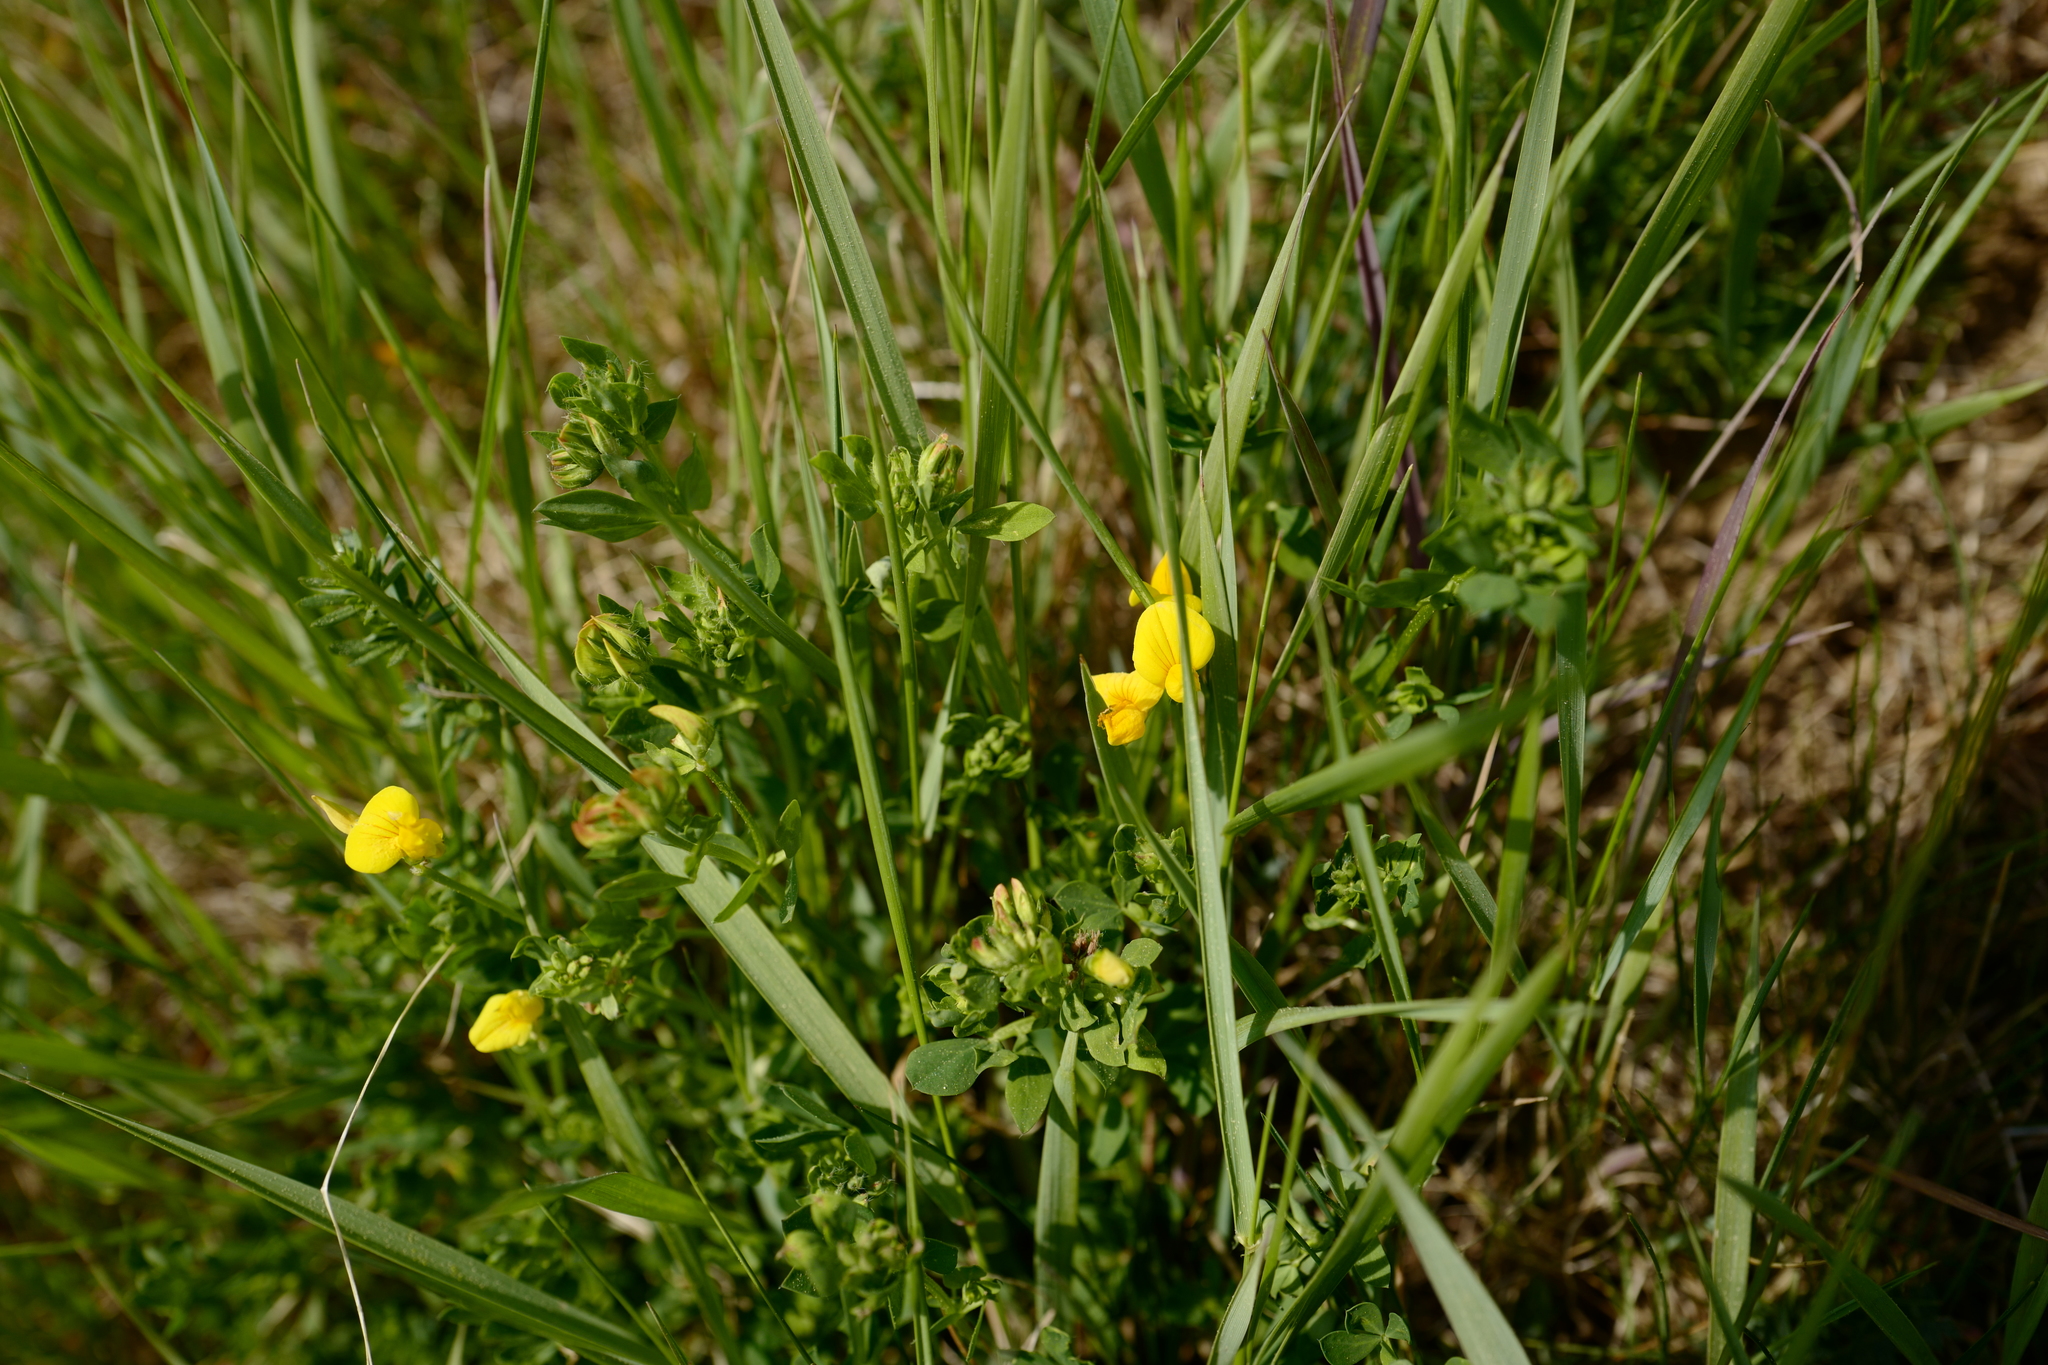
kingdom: Plantae
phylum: Tracheophyta
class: Magnoliopsida
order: Fabales
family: Fabaceae
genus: Lotus
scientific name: Lotus corniculatus
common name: Common bird's-foot-trefoil
